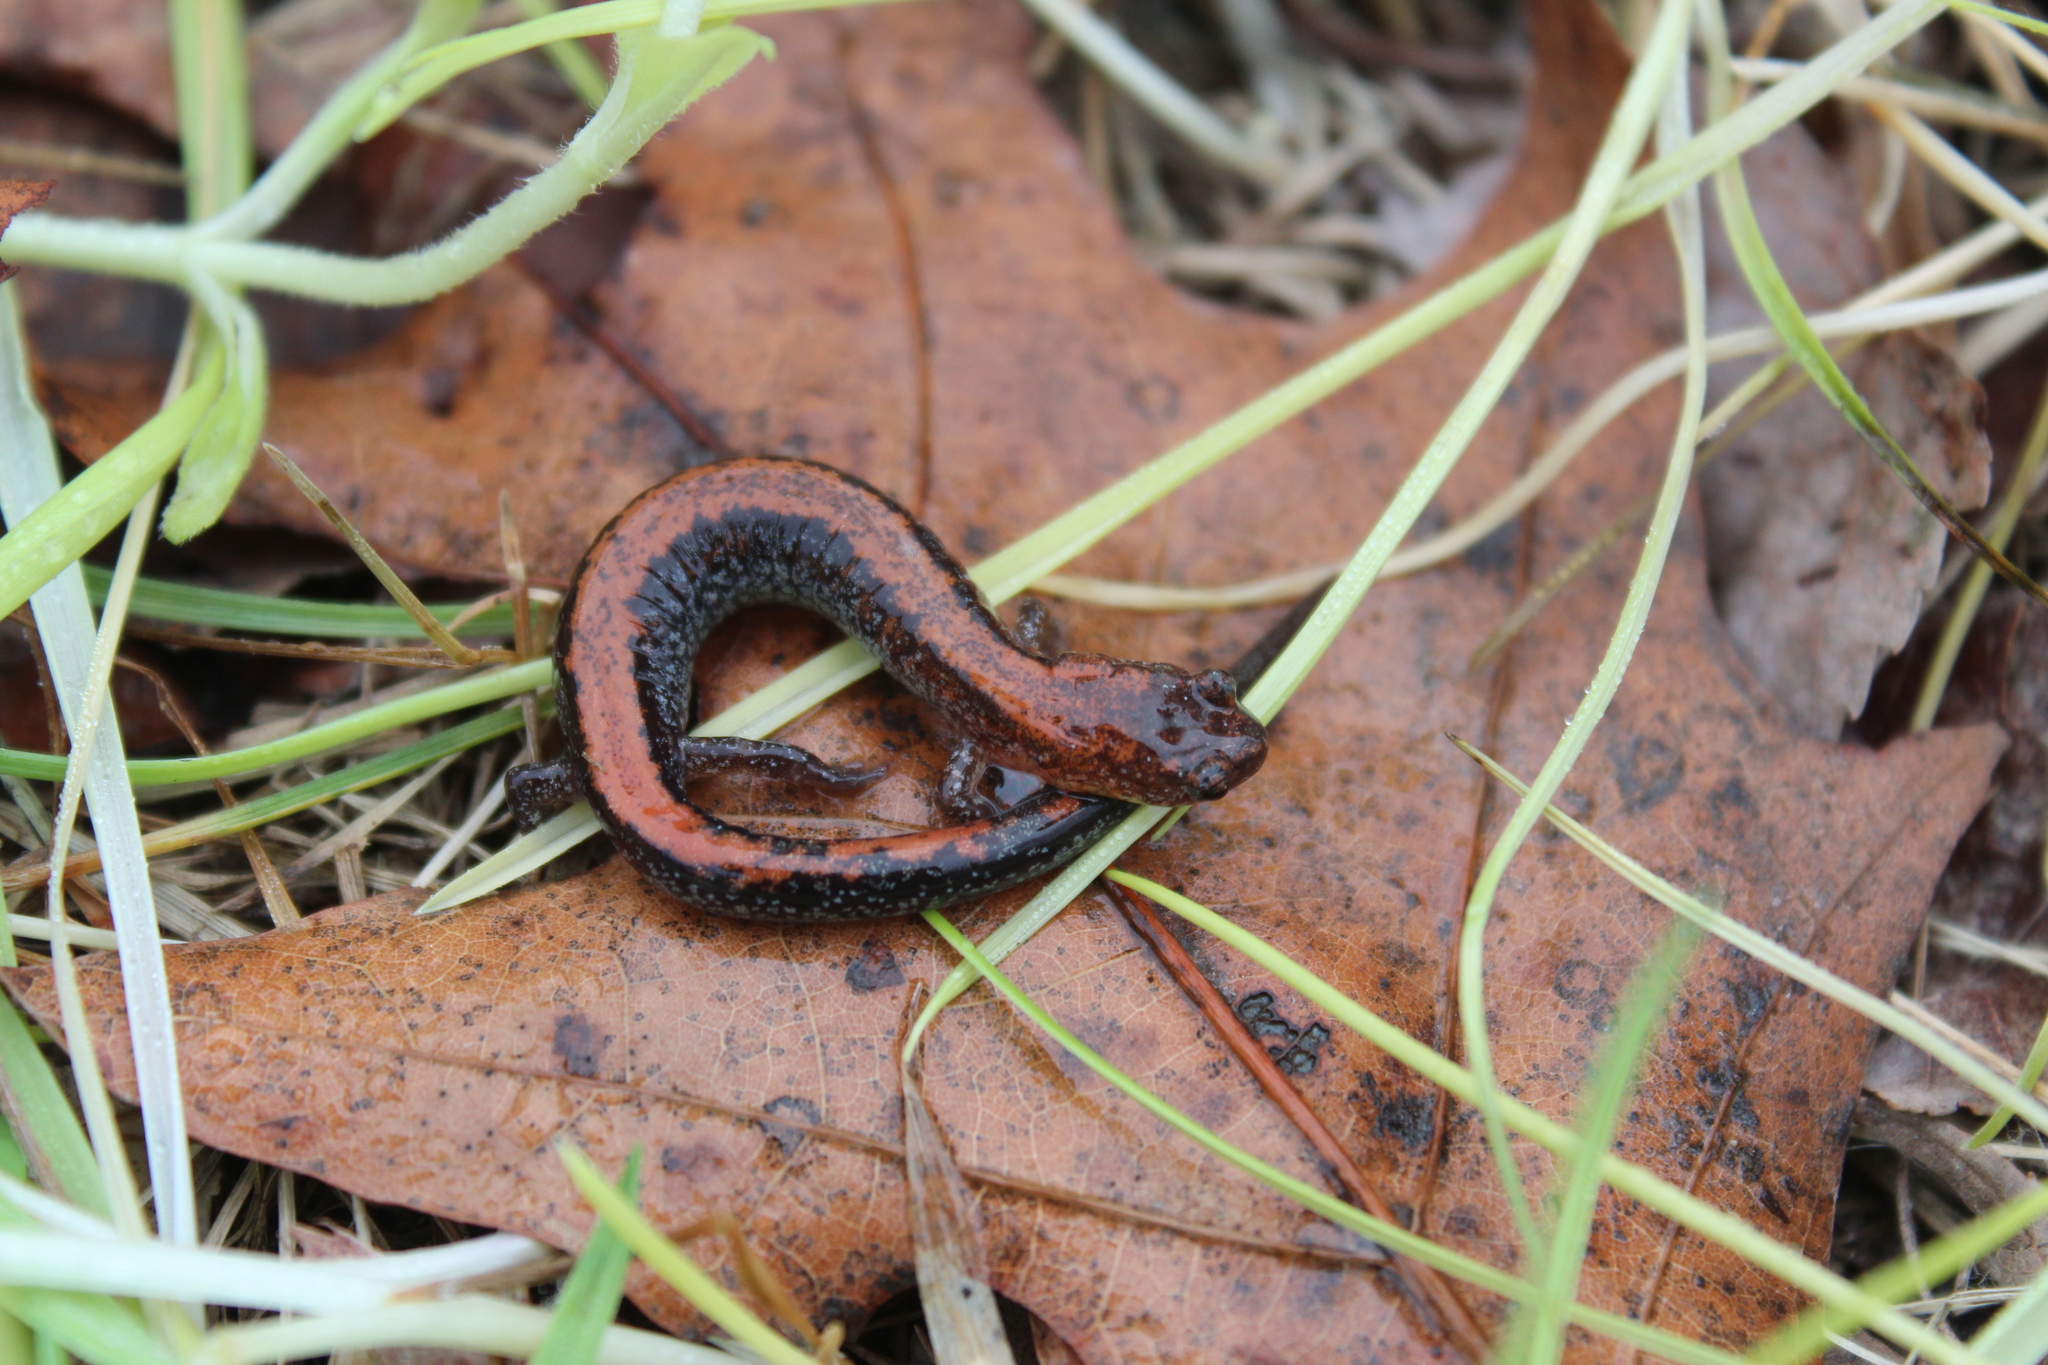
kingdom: Animalia
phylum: Chordata
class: Amphibia
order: Caudata
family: Plethodontidae
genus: Plethodon
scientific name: Plethodon cinereus
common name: Redback salamander
